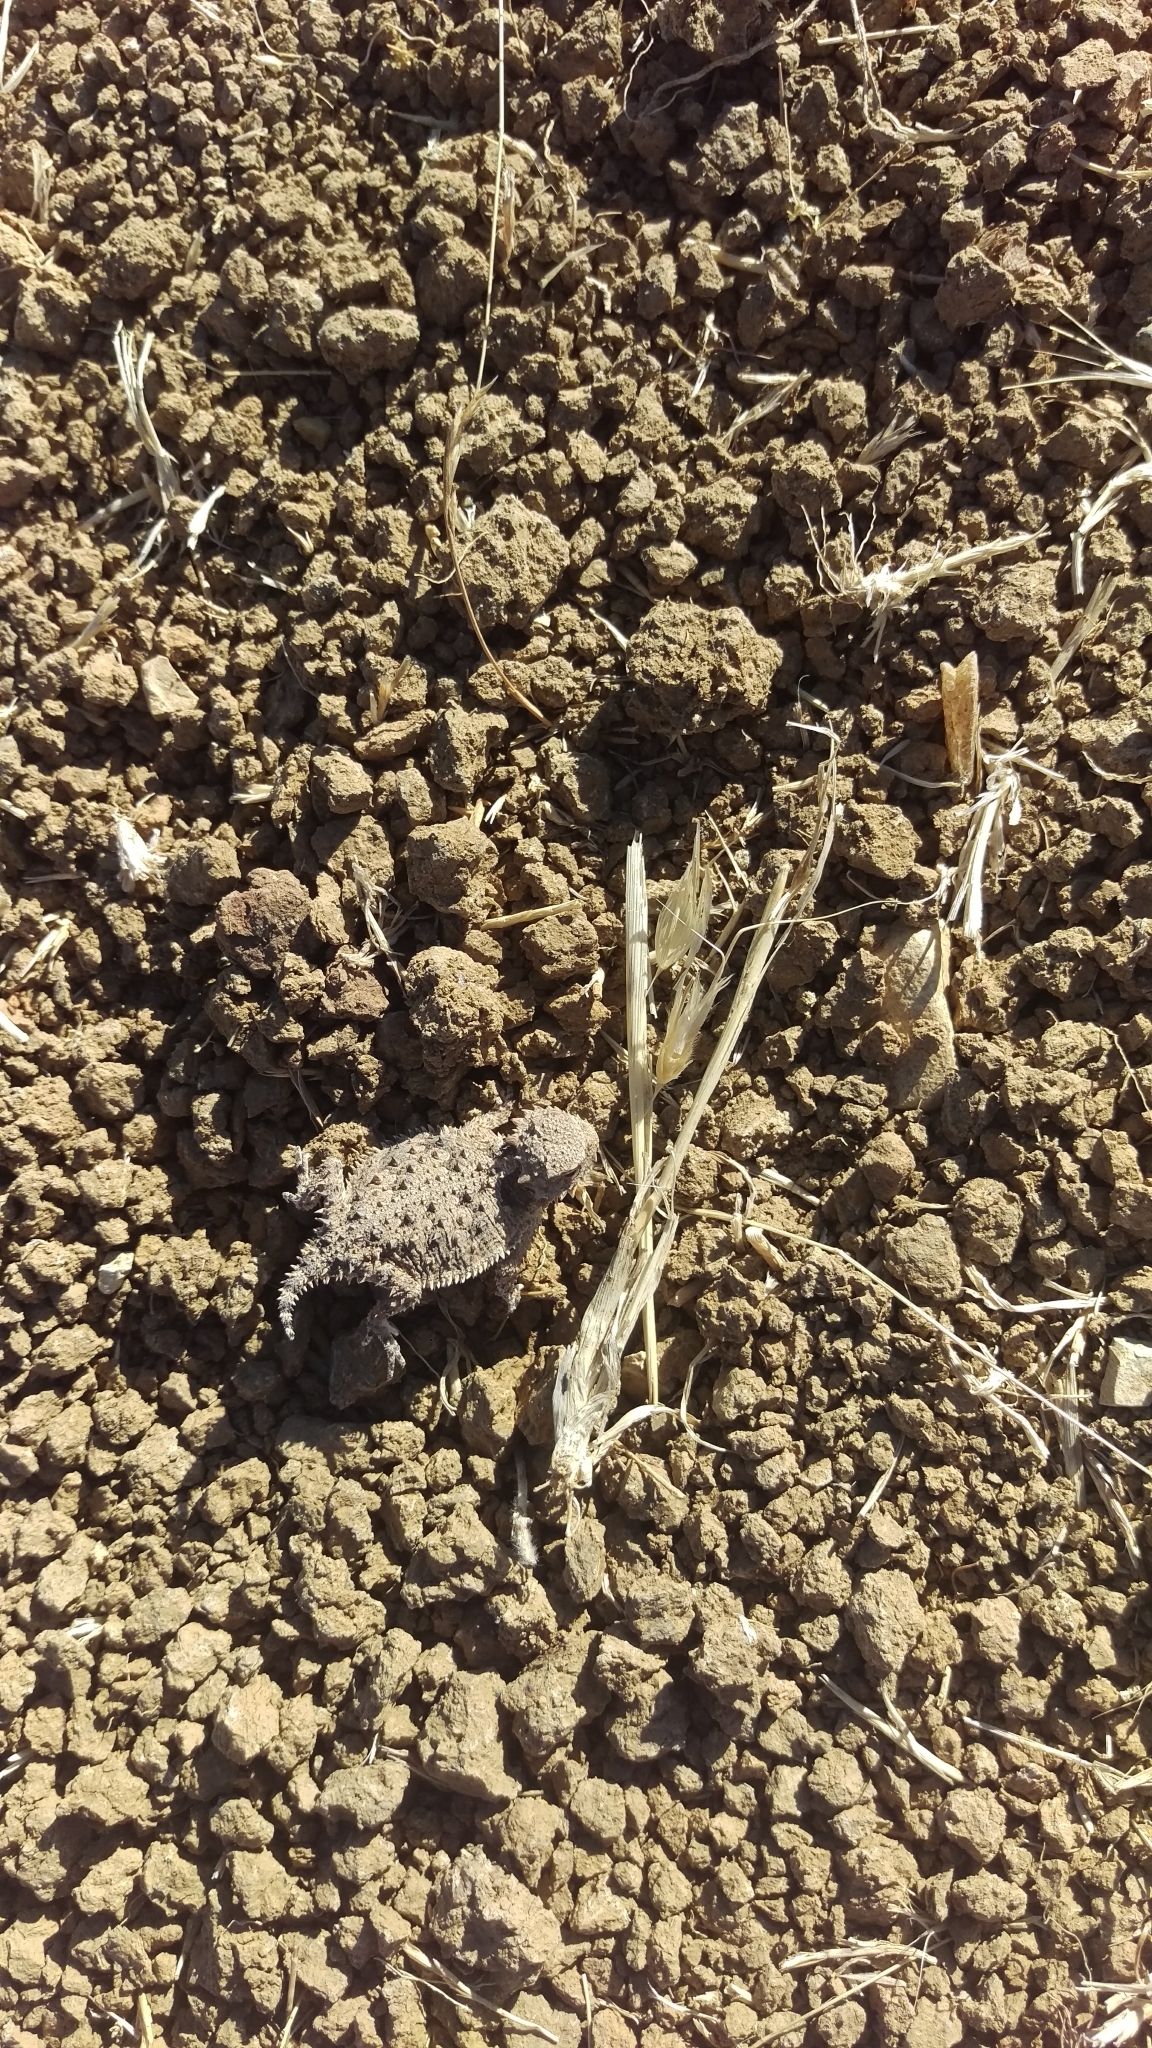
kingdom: Animalia
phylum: Chordata
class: Squamata
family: Phrynosomatidae
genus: Phrynosoma
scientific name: Phrynosoma blainvillii
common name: San diego horned lizard
